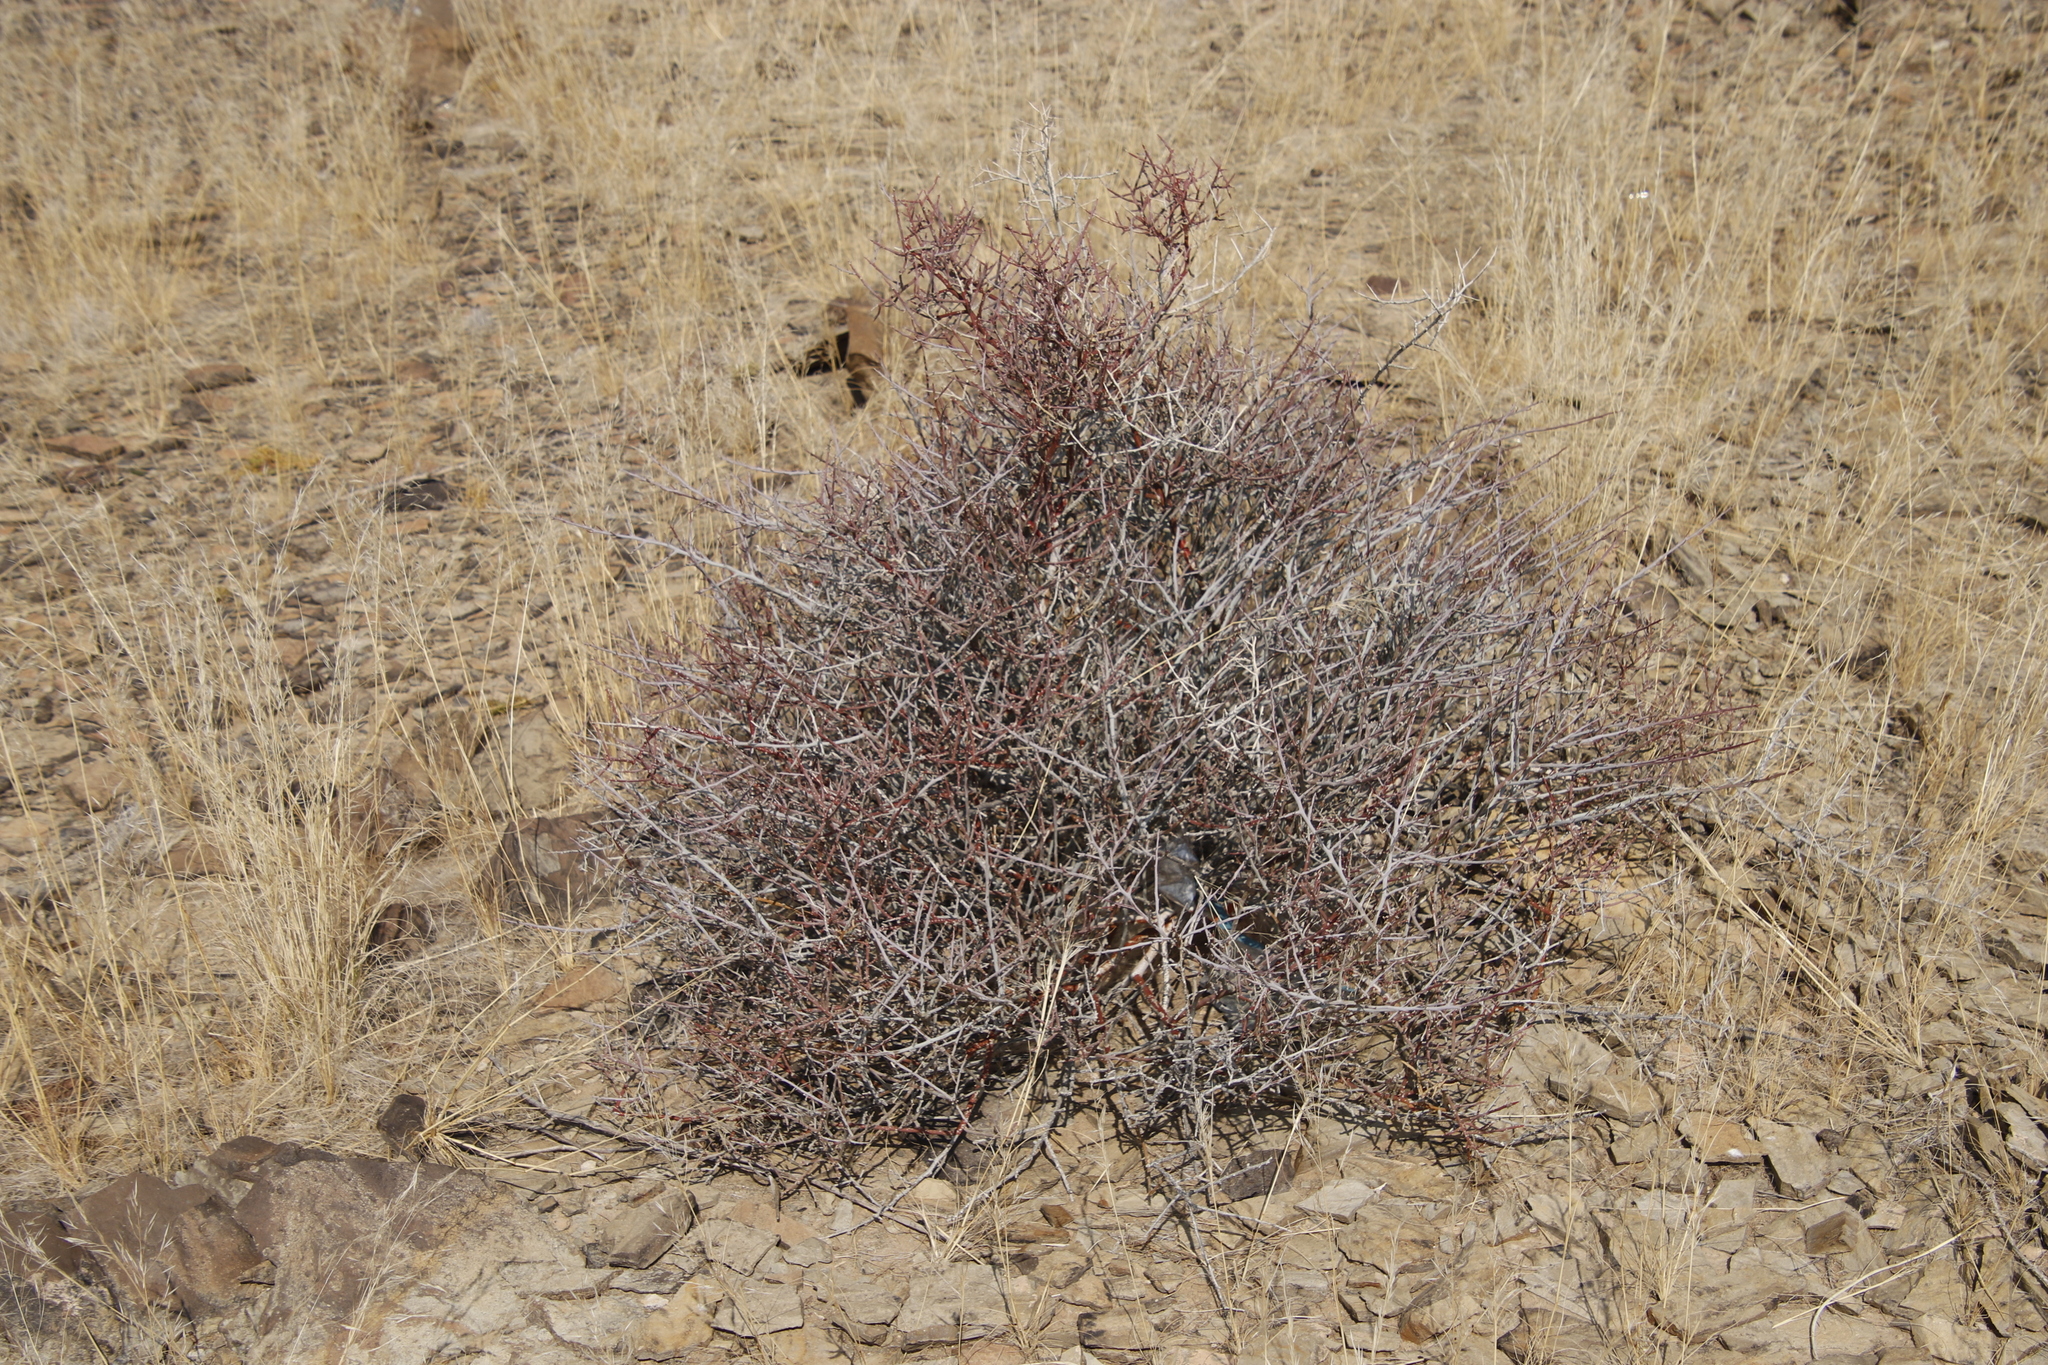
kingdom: Plantae
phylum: Tracheophyta
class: Magnoliopsida
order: Caryophyllales
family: Amaranthaceae
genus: Calicorema
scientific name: Calicorema capitata
